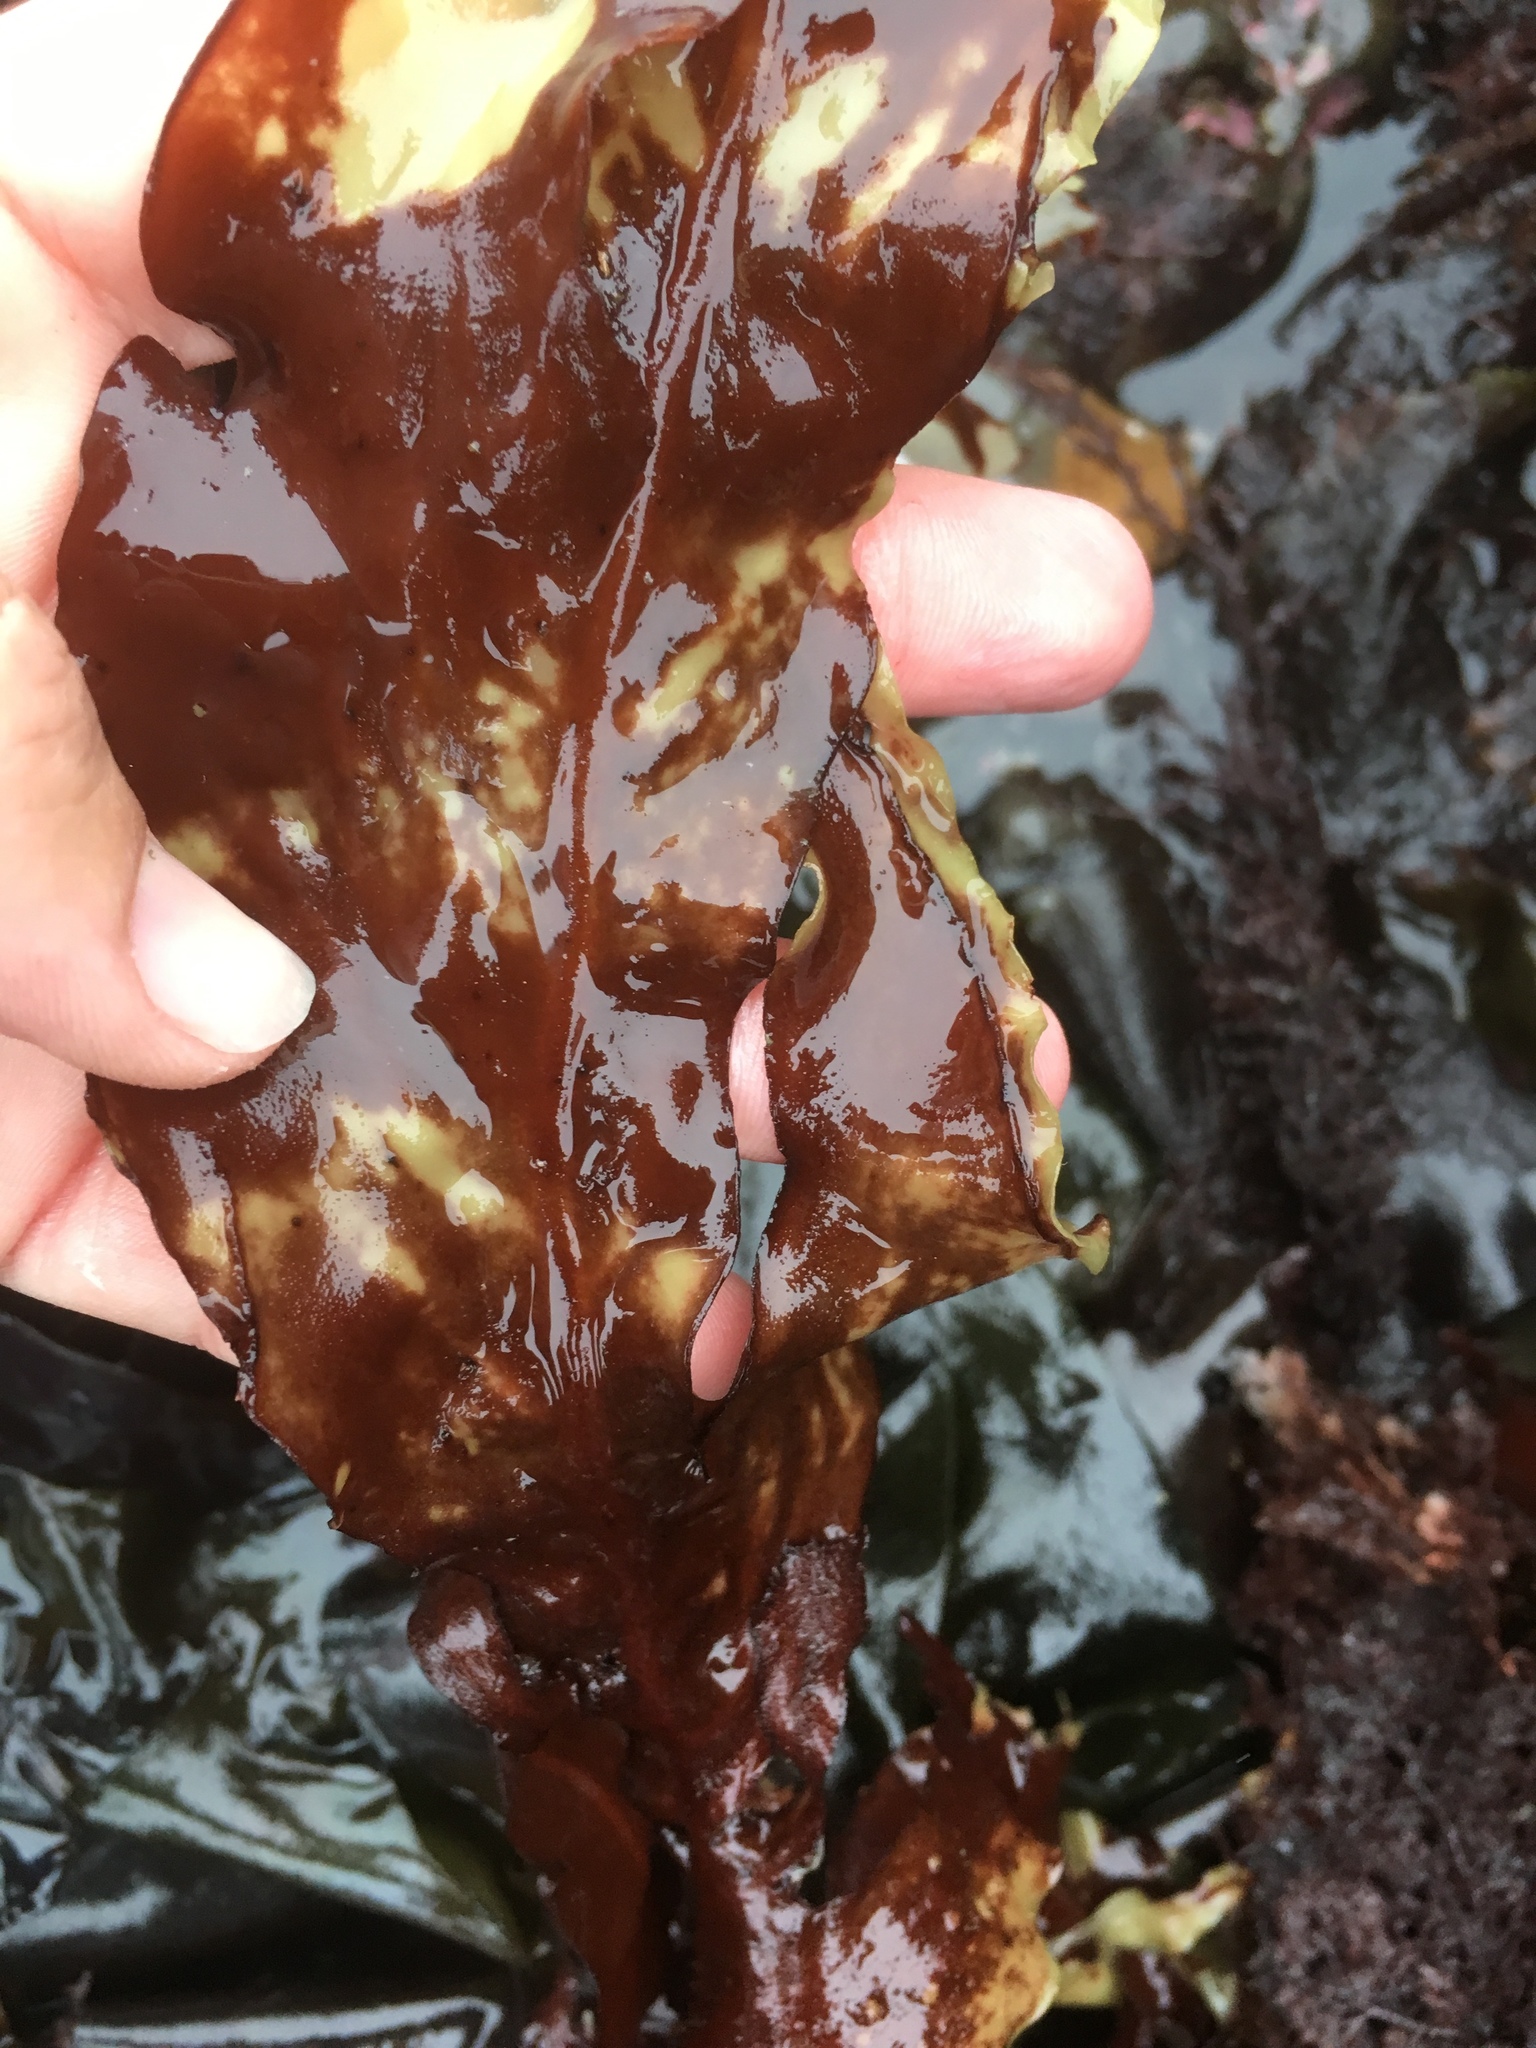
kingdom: Plantae
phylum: Rhodophyta
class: Florideophyceae
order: Gigartinales
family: Kallymeniaceae
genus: Erythrophyllum
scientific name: Erythrophyllum delesserioides
